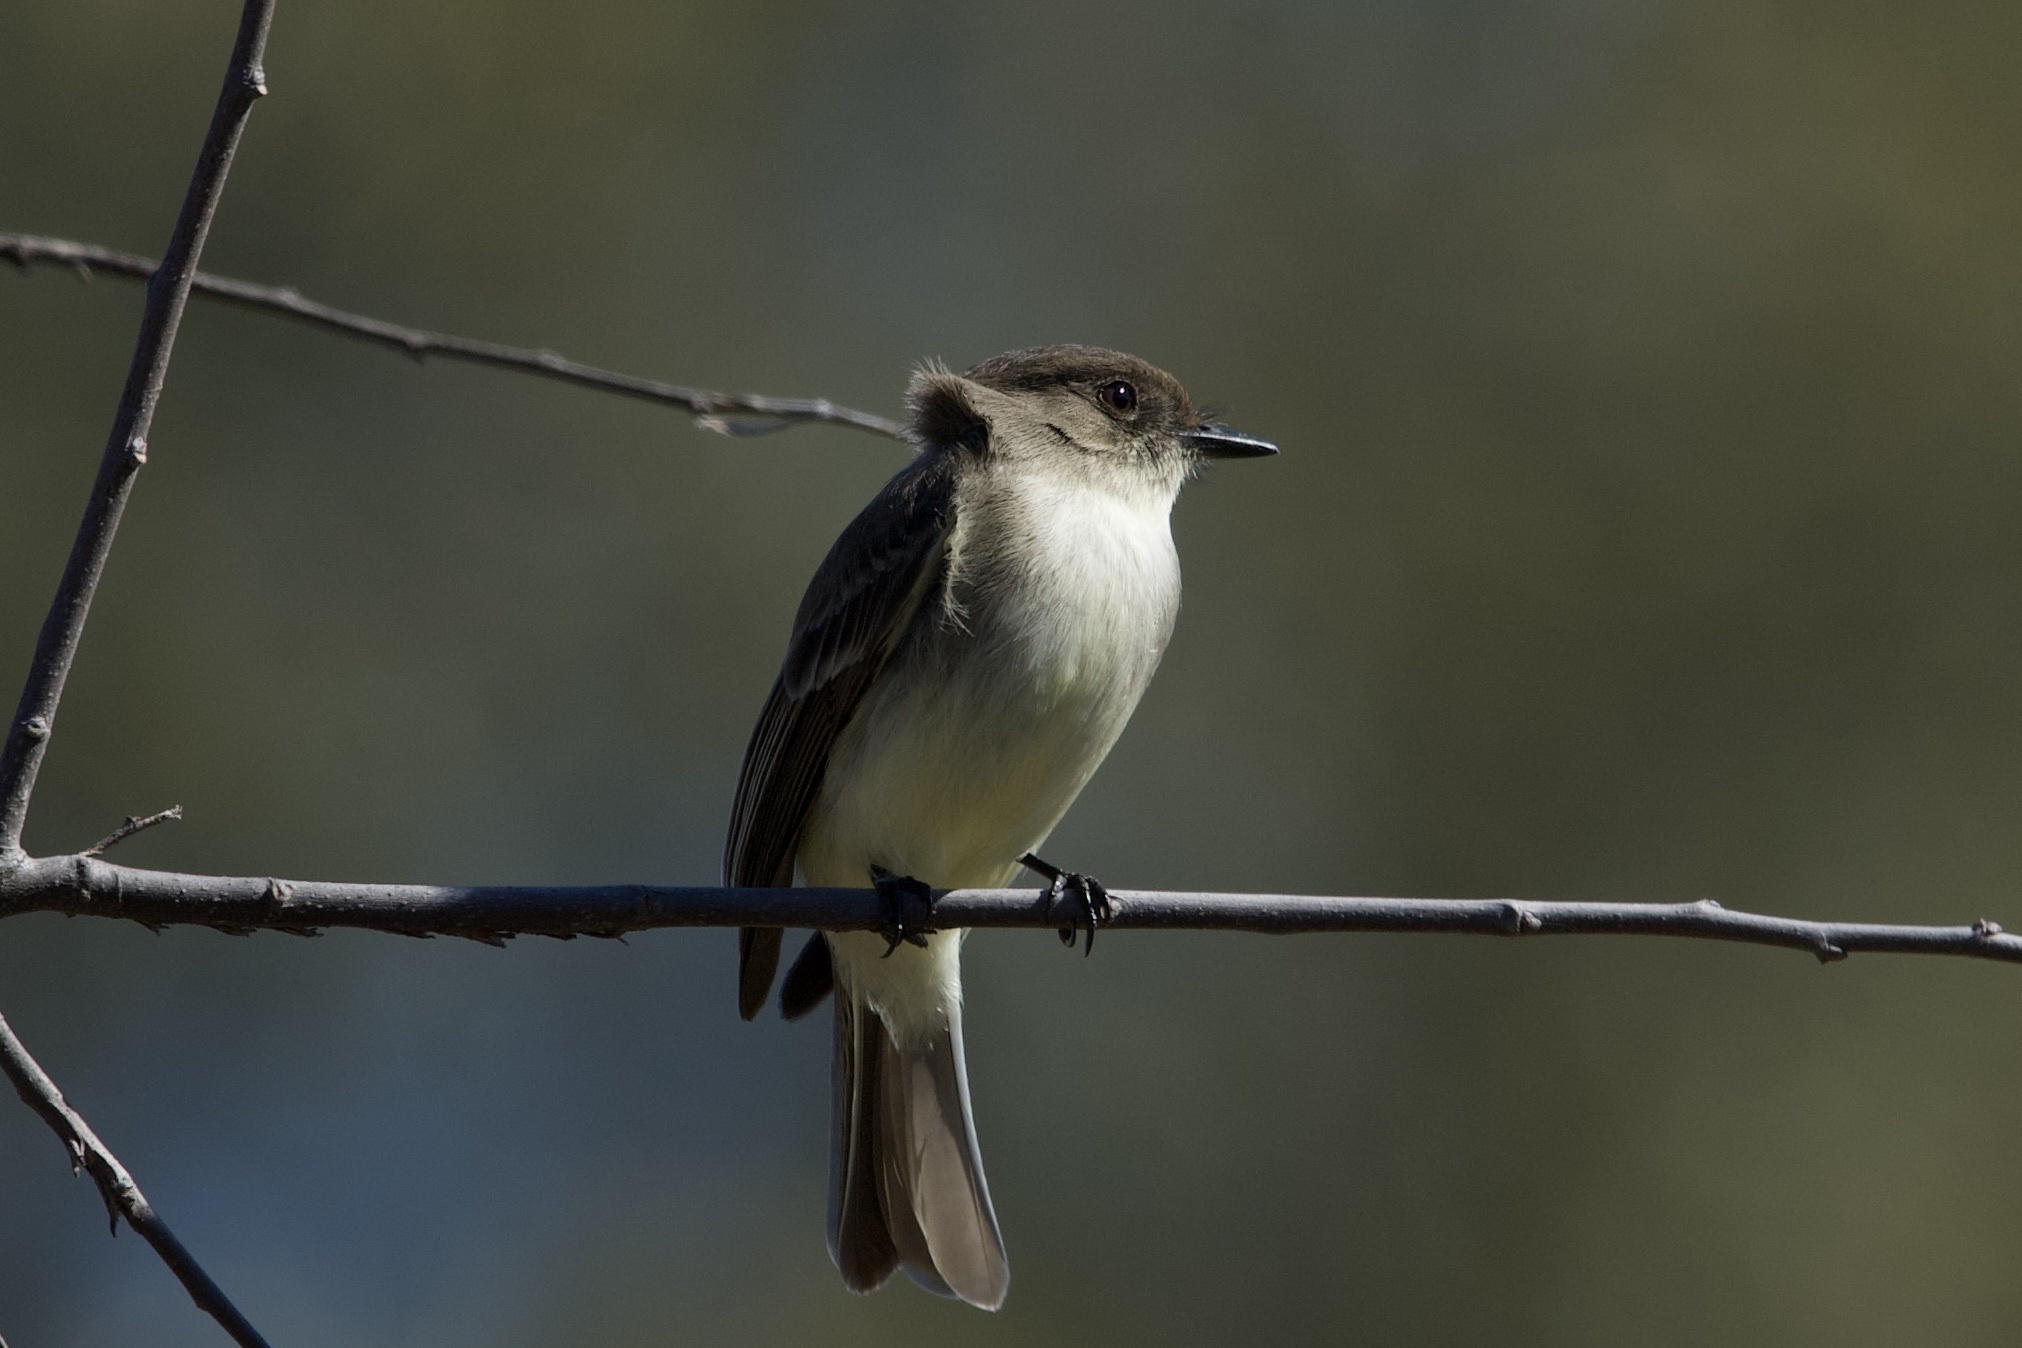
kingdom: Animalia
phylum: Chordata
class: Aves
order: Passeriformes
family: Tyrannidae
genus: Sayornis
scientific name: Sayornis phoebe
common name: Eastern phoebe
